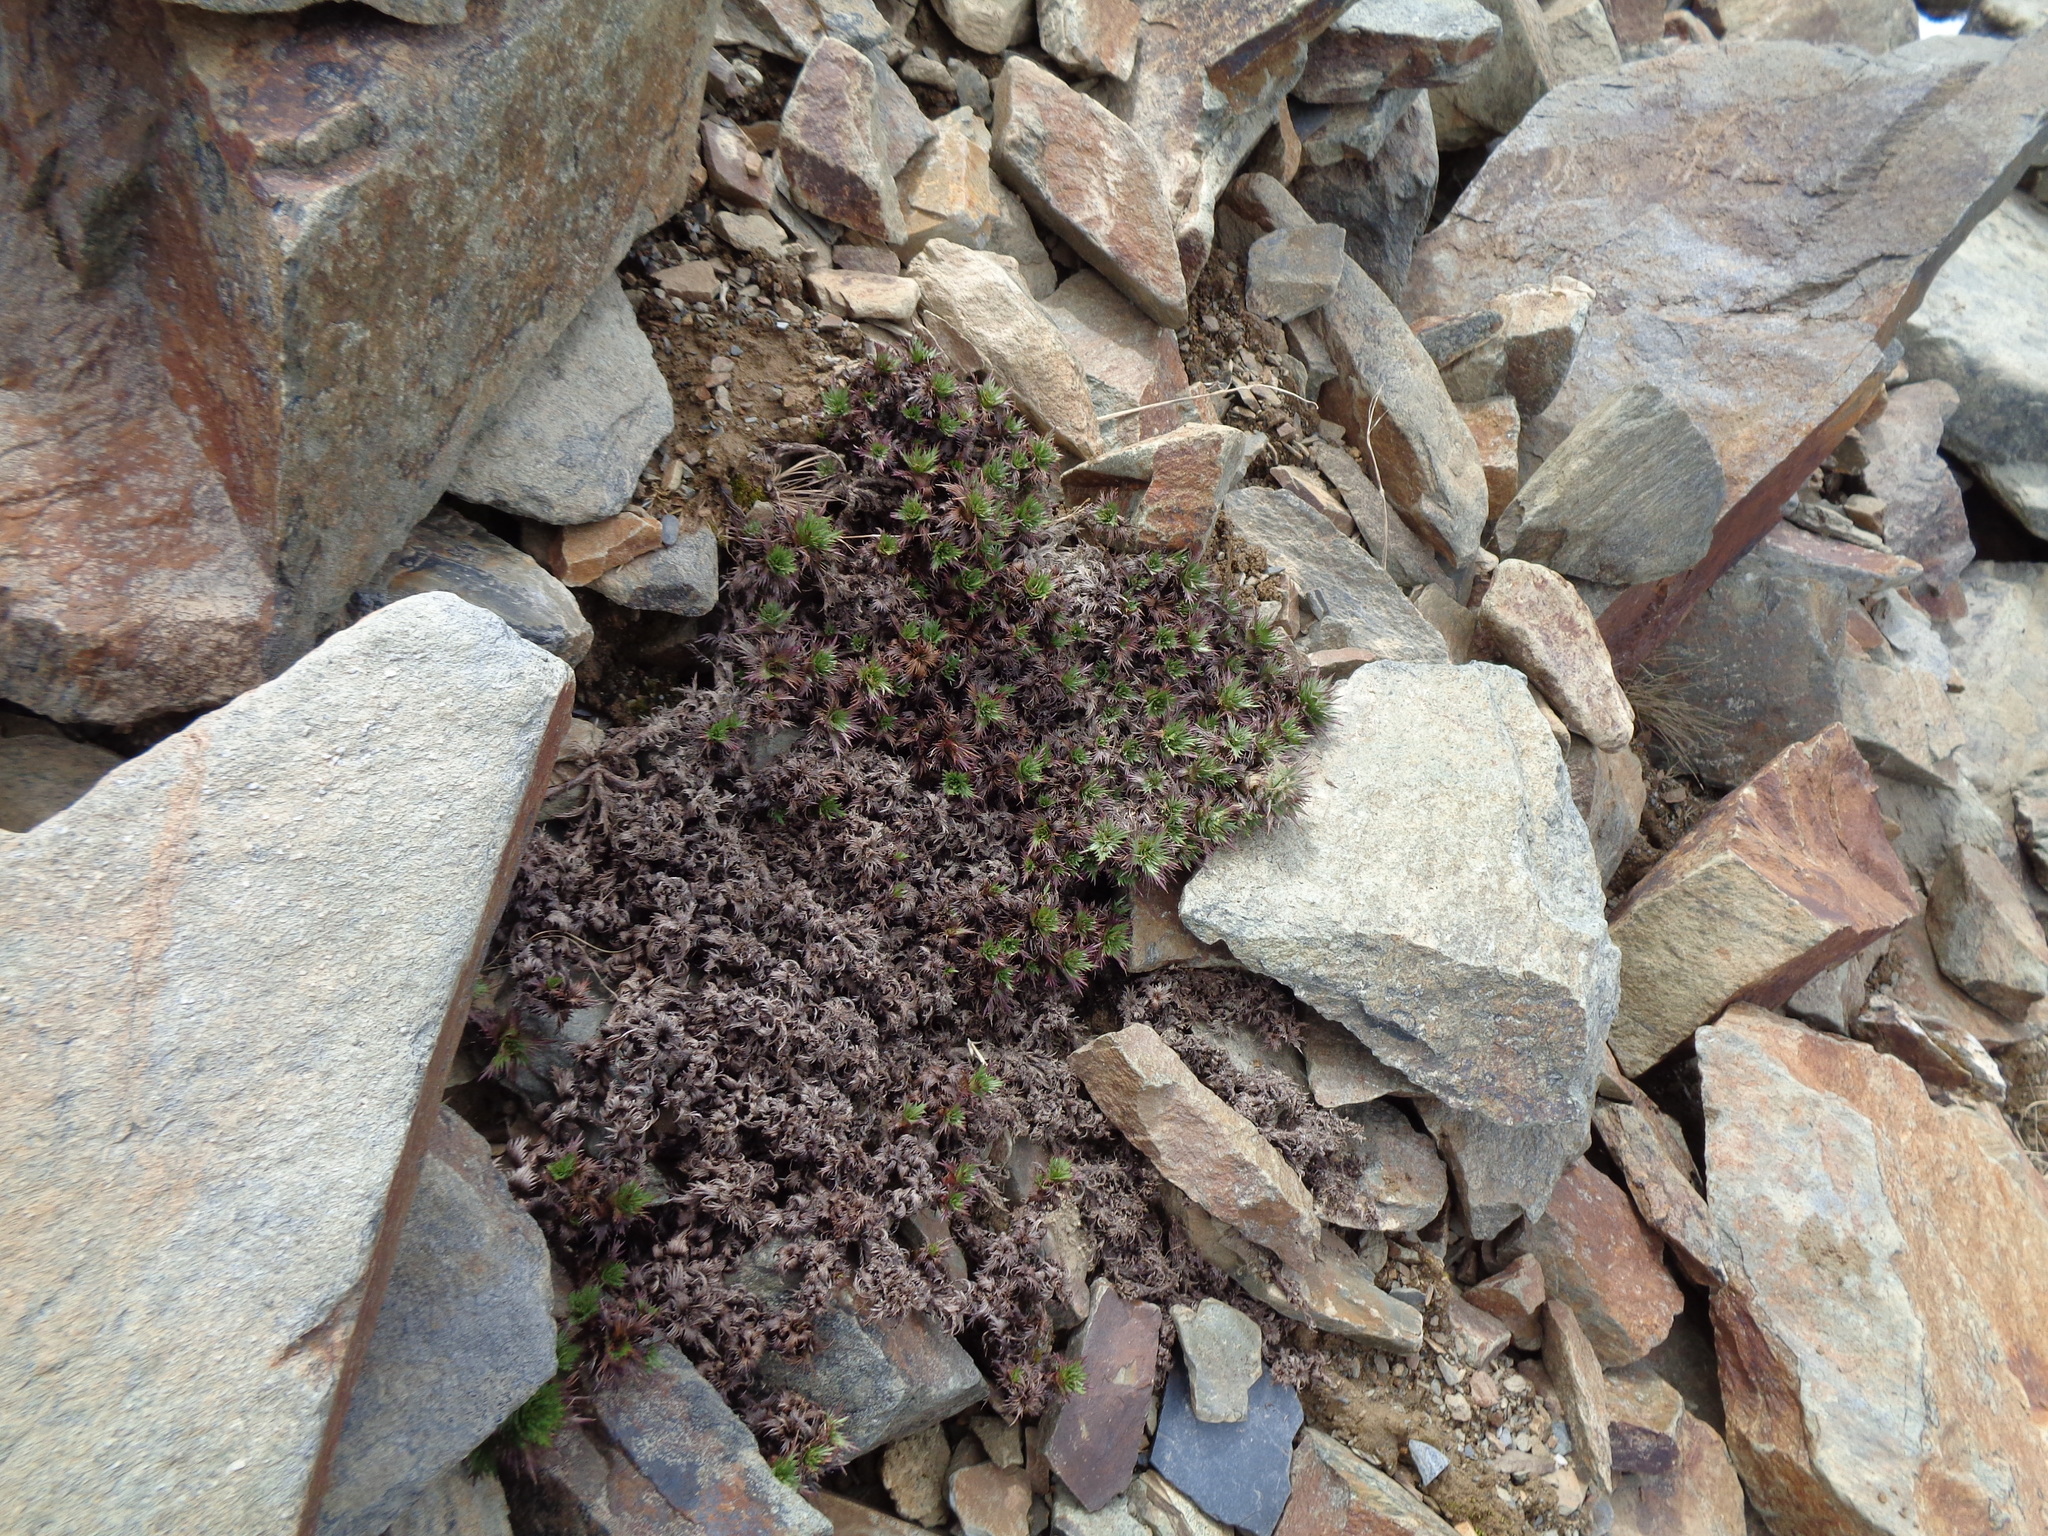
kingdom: Plantae
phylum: Tracheophyta
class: Magnoliopsida
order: Asterales
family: Asteraceae
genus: Nassauvia
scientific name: Nassauvia magellanica
